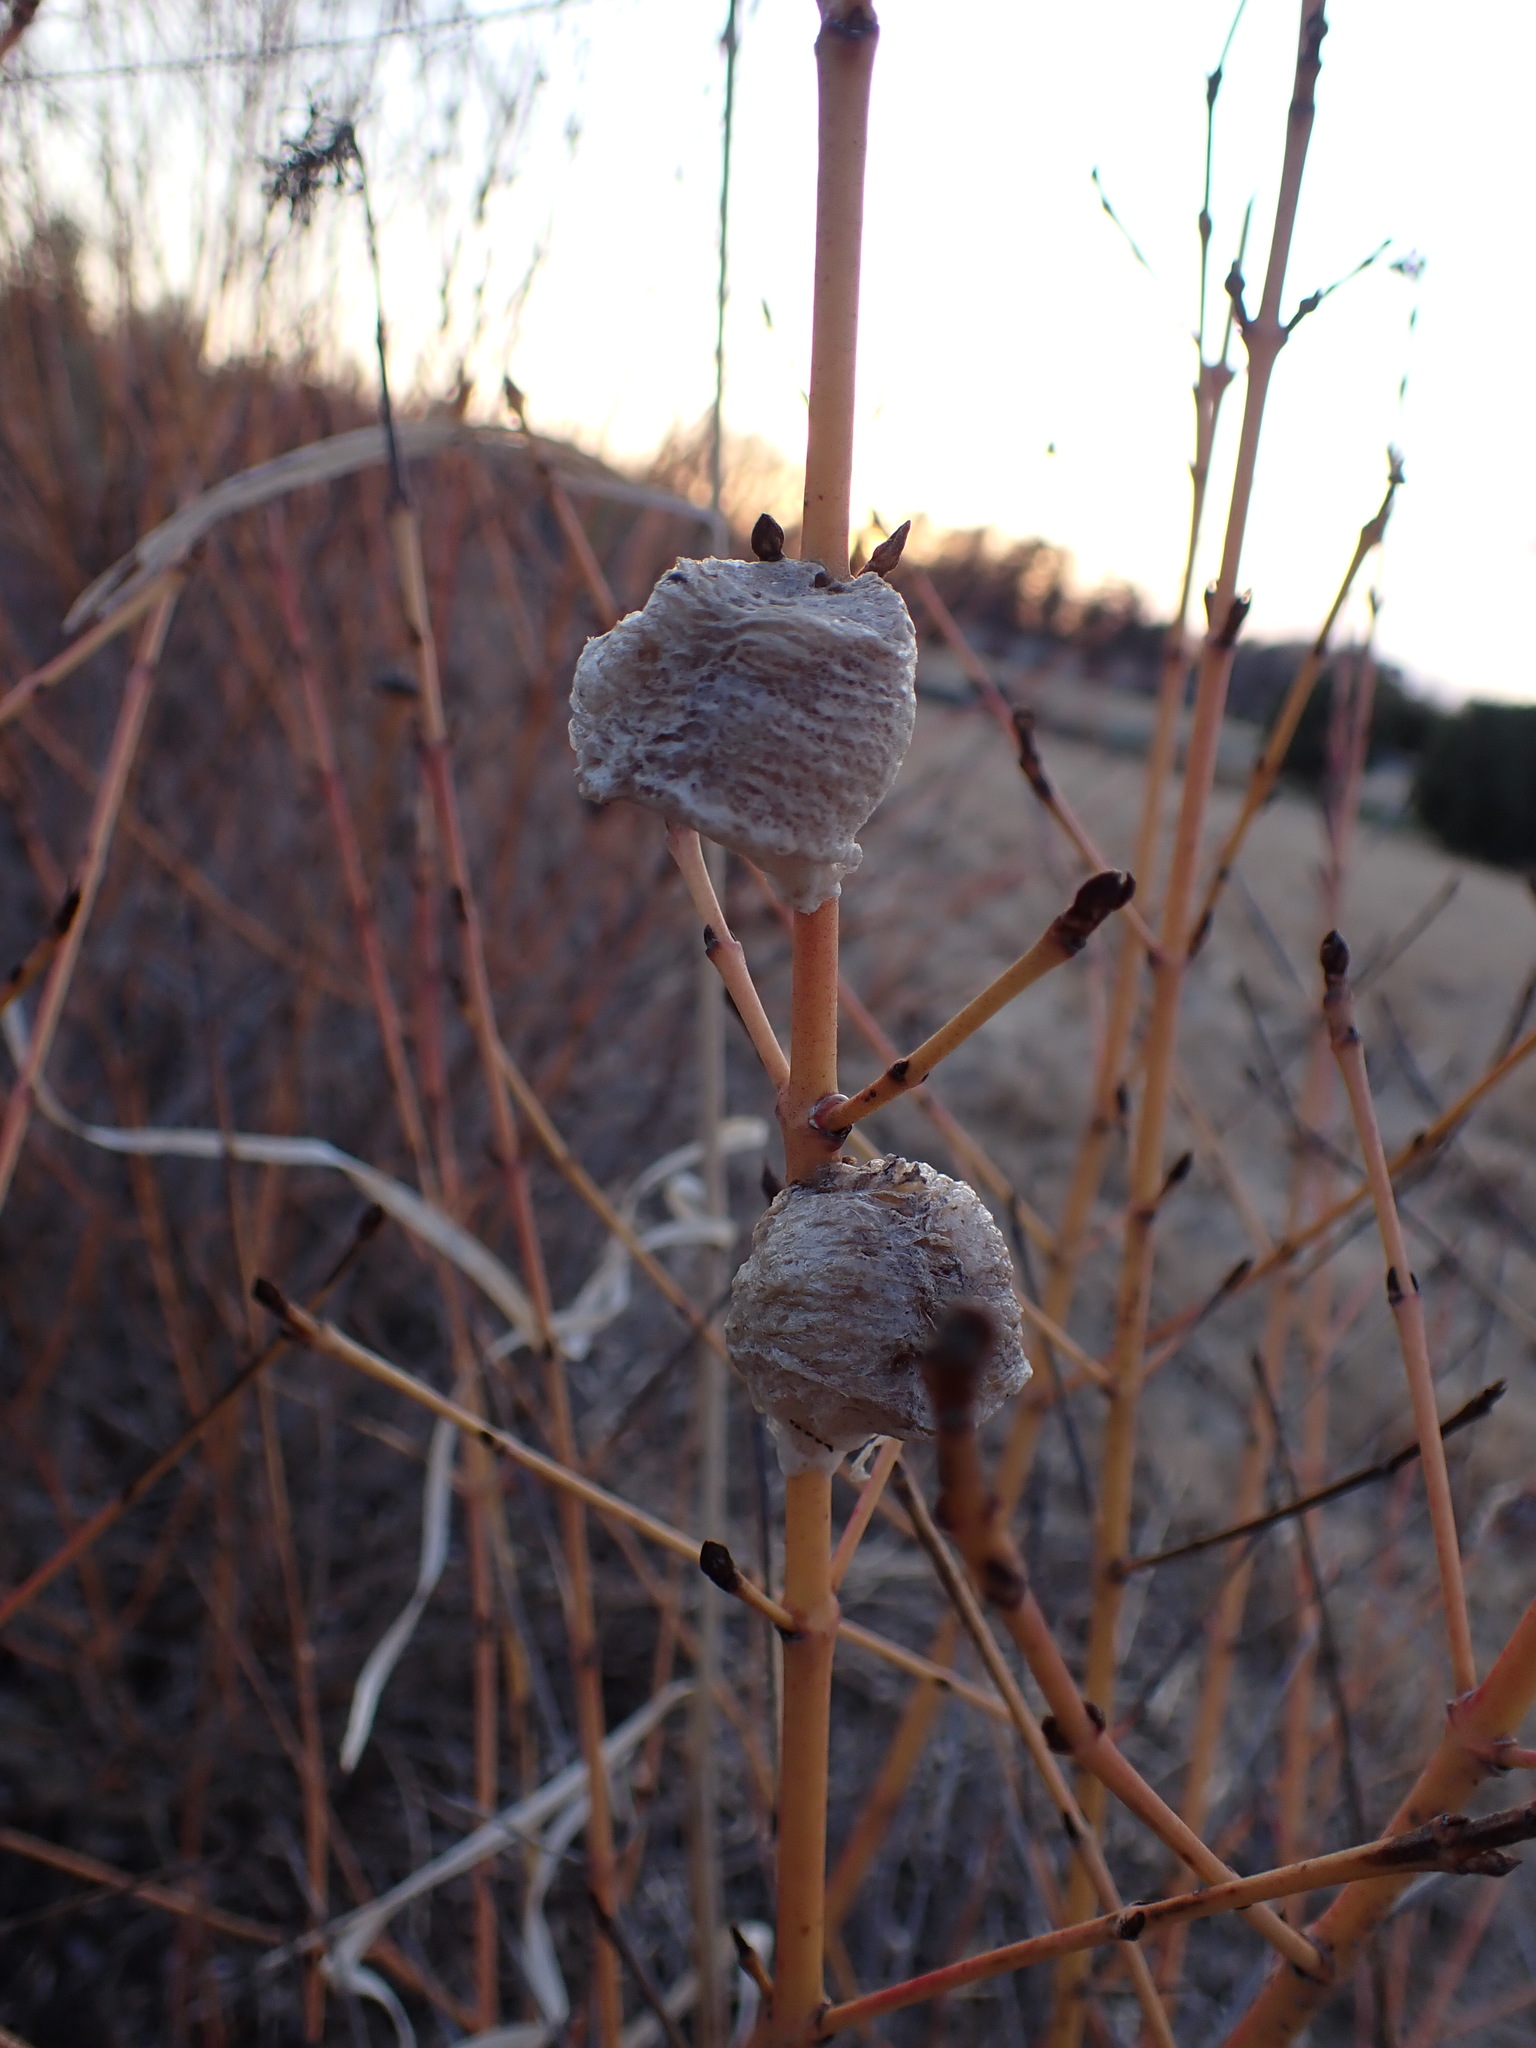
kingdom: Animalia
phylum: Arthropoda
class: Insecta
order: Mantodea
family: Mantidae
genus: Tenodera
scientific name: Tenodera sinensis
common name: Chinese mantis
